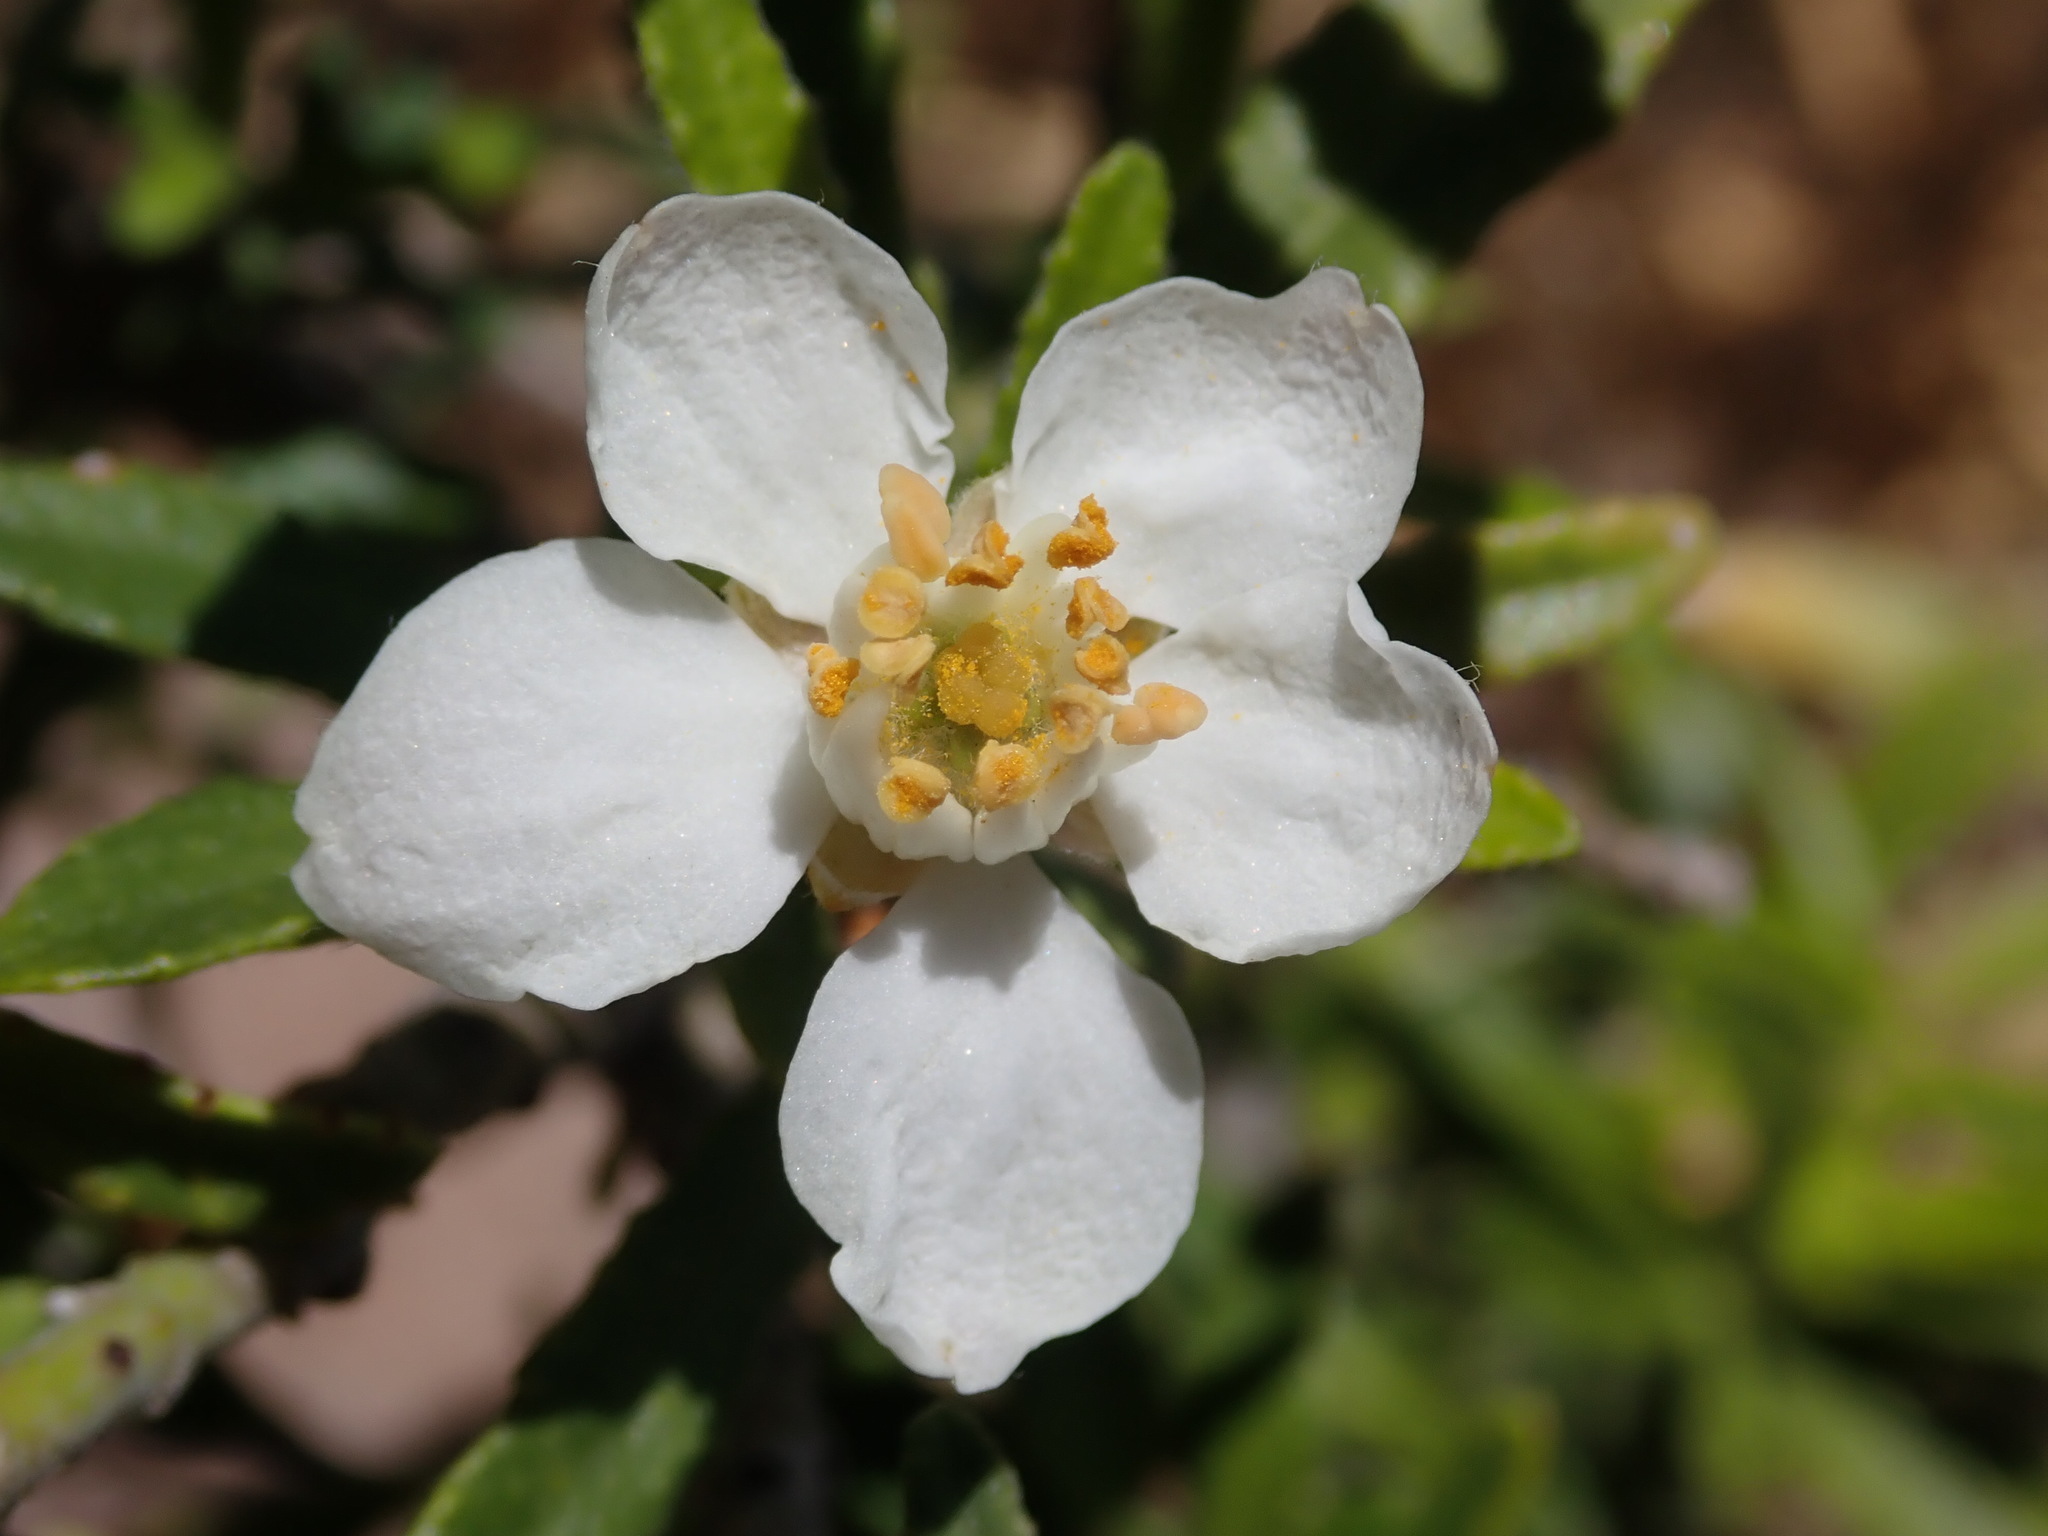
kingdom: Plantae
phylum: Tracheophyta
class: Magnoliopsida
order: Sapindales
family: Rutaceae
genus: Choisya
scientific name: Choisya dumosa
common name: Mexican-orange
